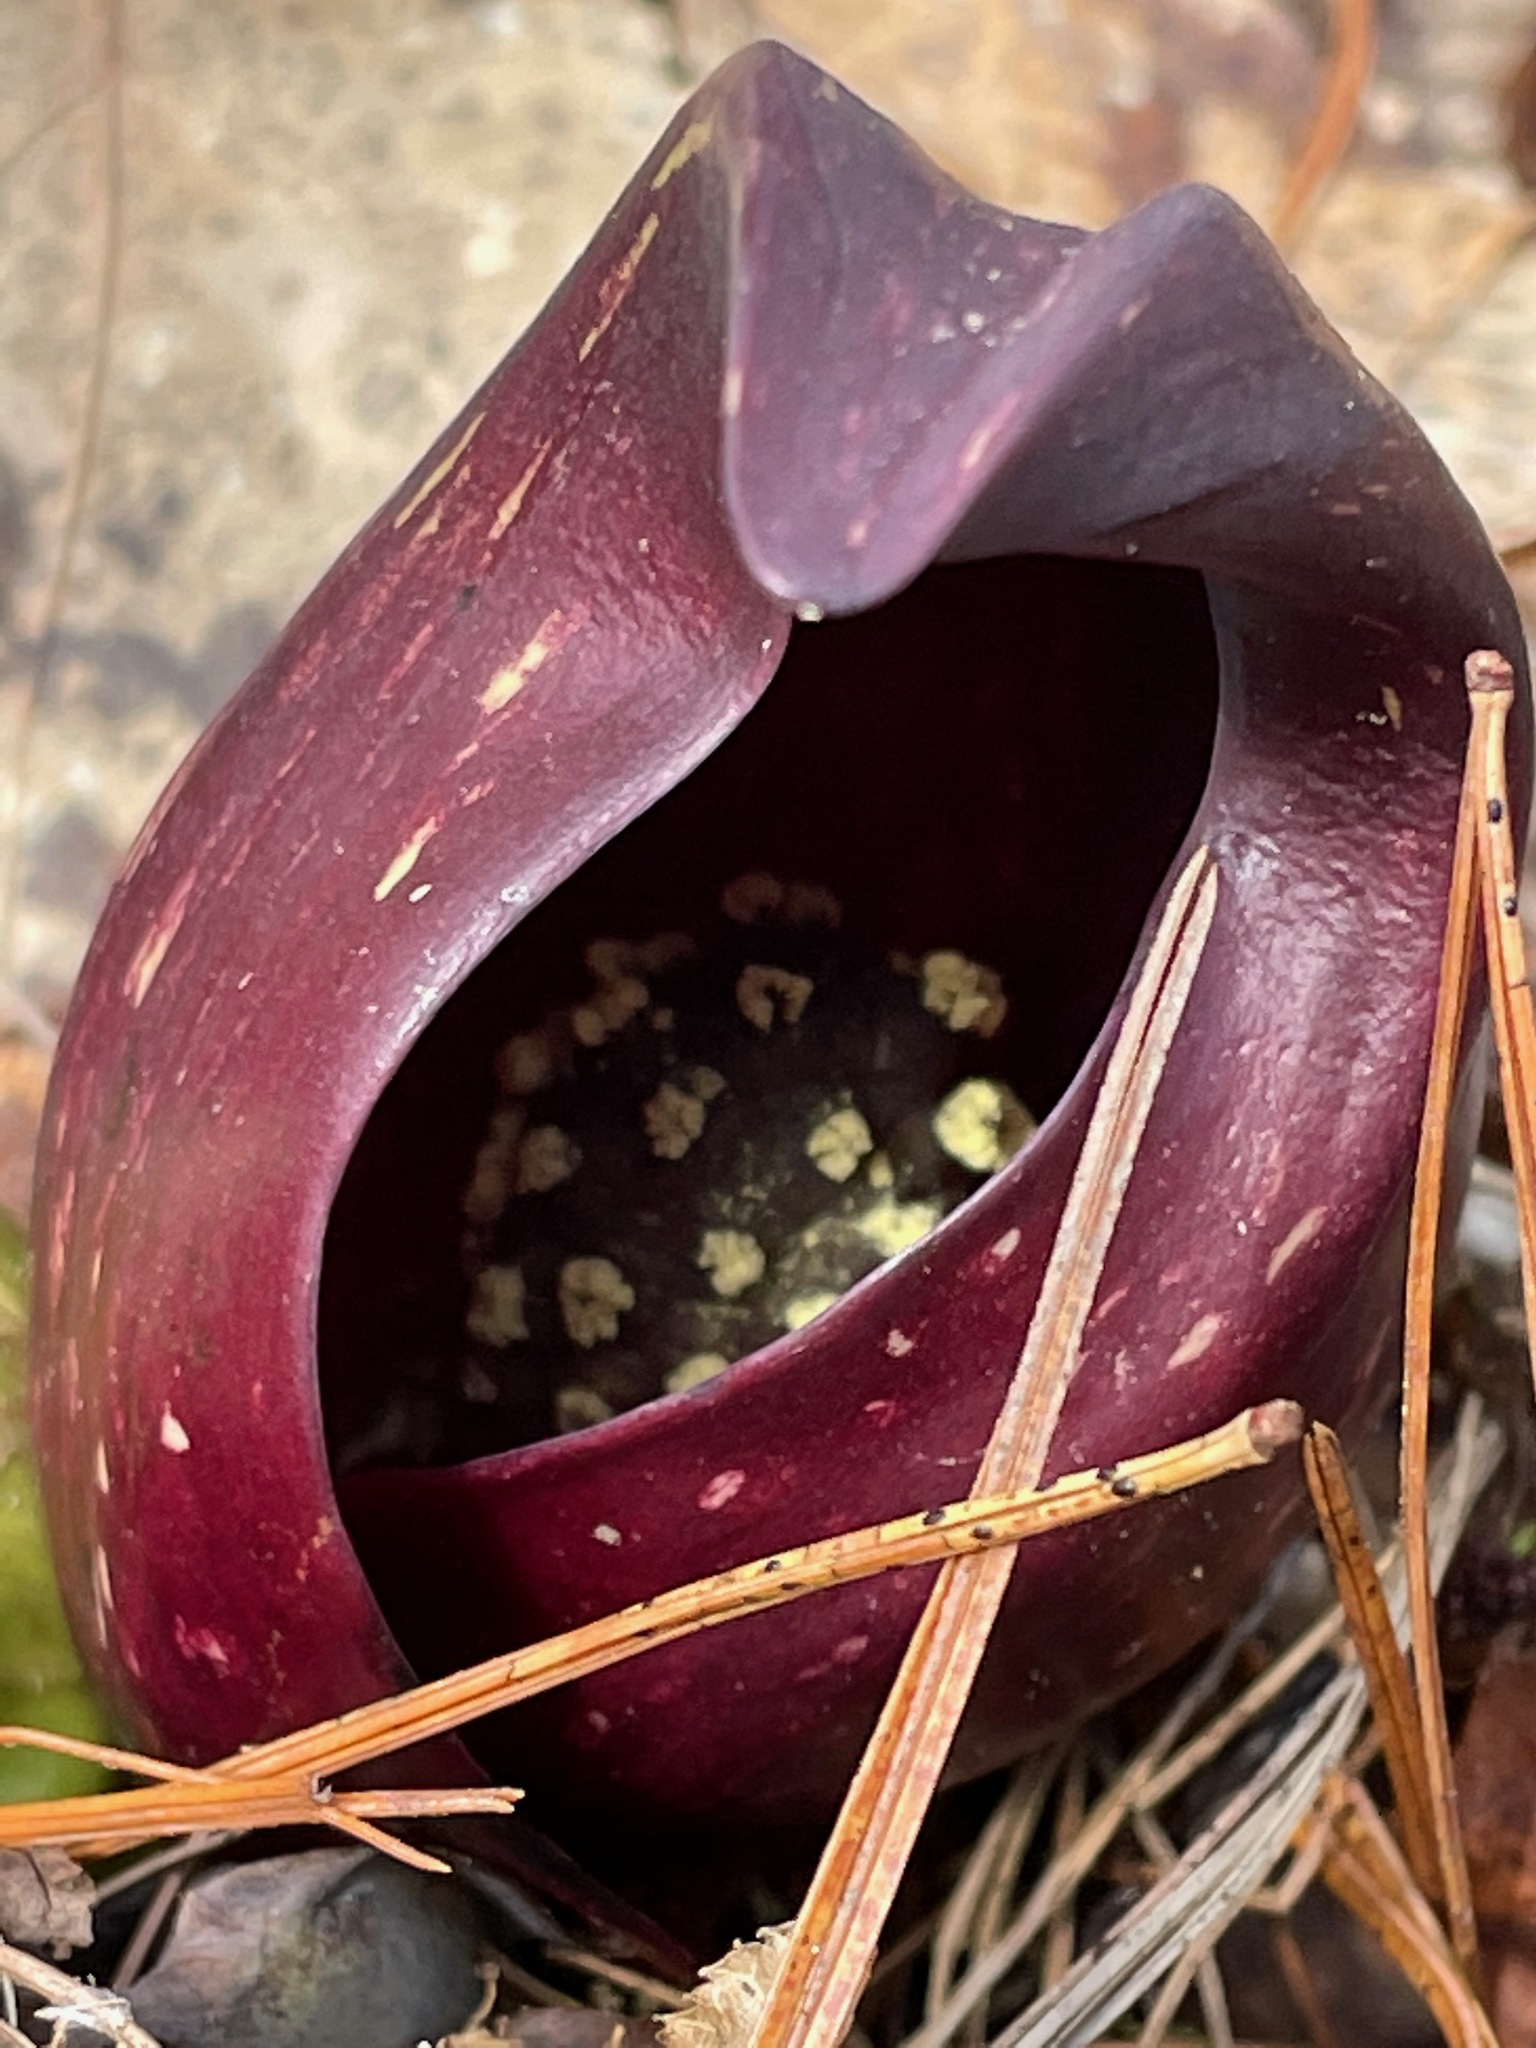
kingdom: Plantae
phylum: Tracheophyta
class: Liliopsida
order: Alismatales
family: Araceae
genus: Symplocarpus
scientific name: Symplocarpus foetidus
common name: Eastern skunk cabbage
